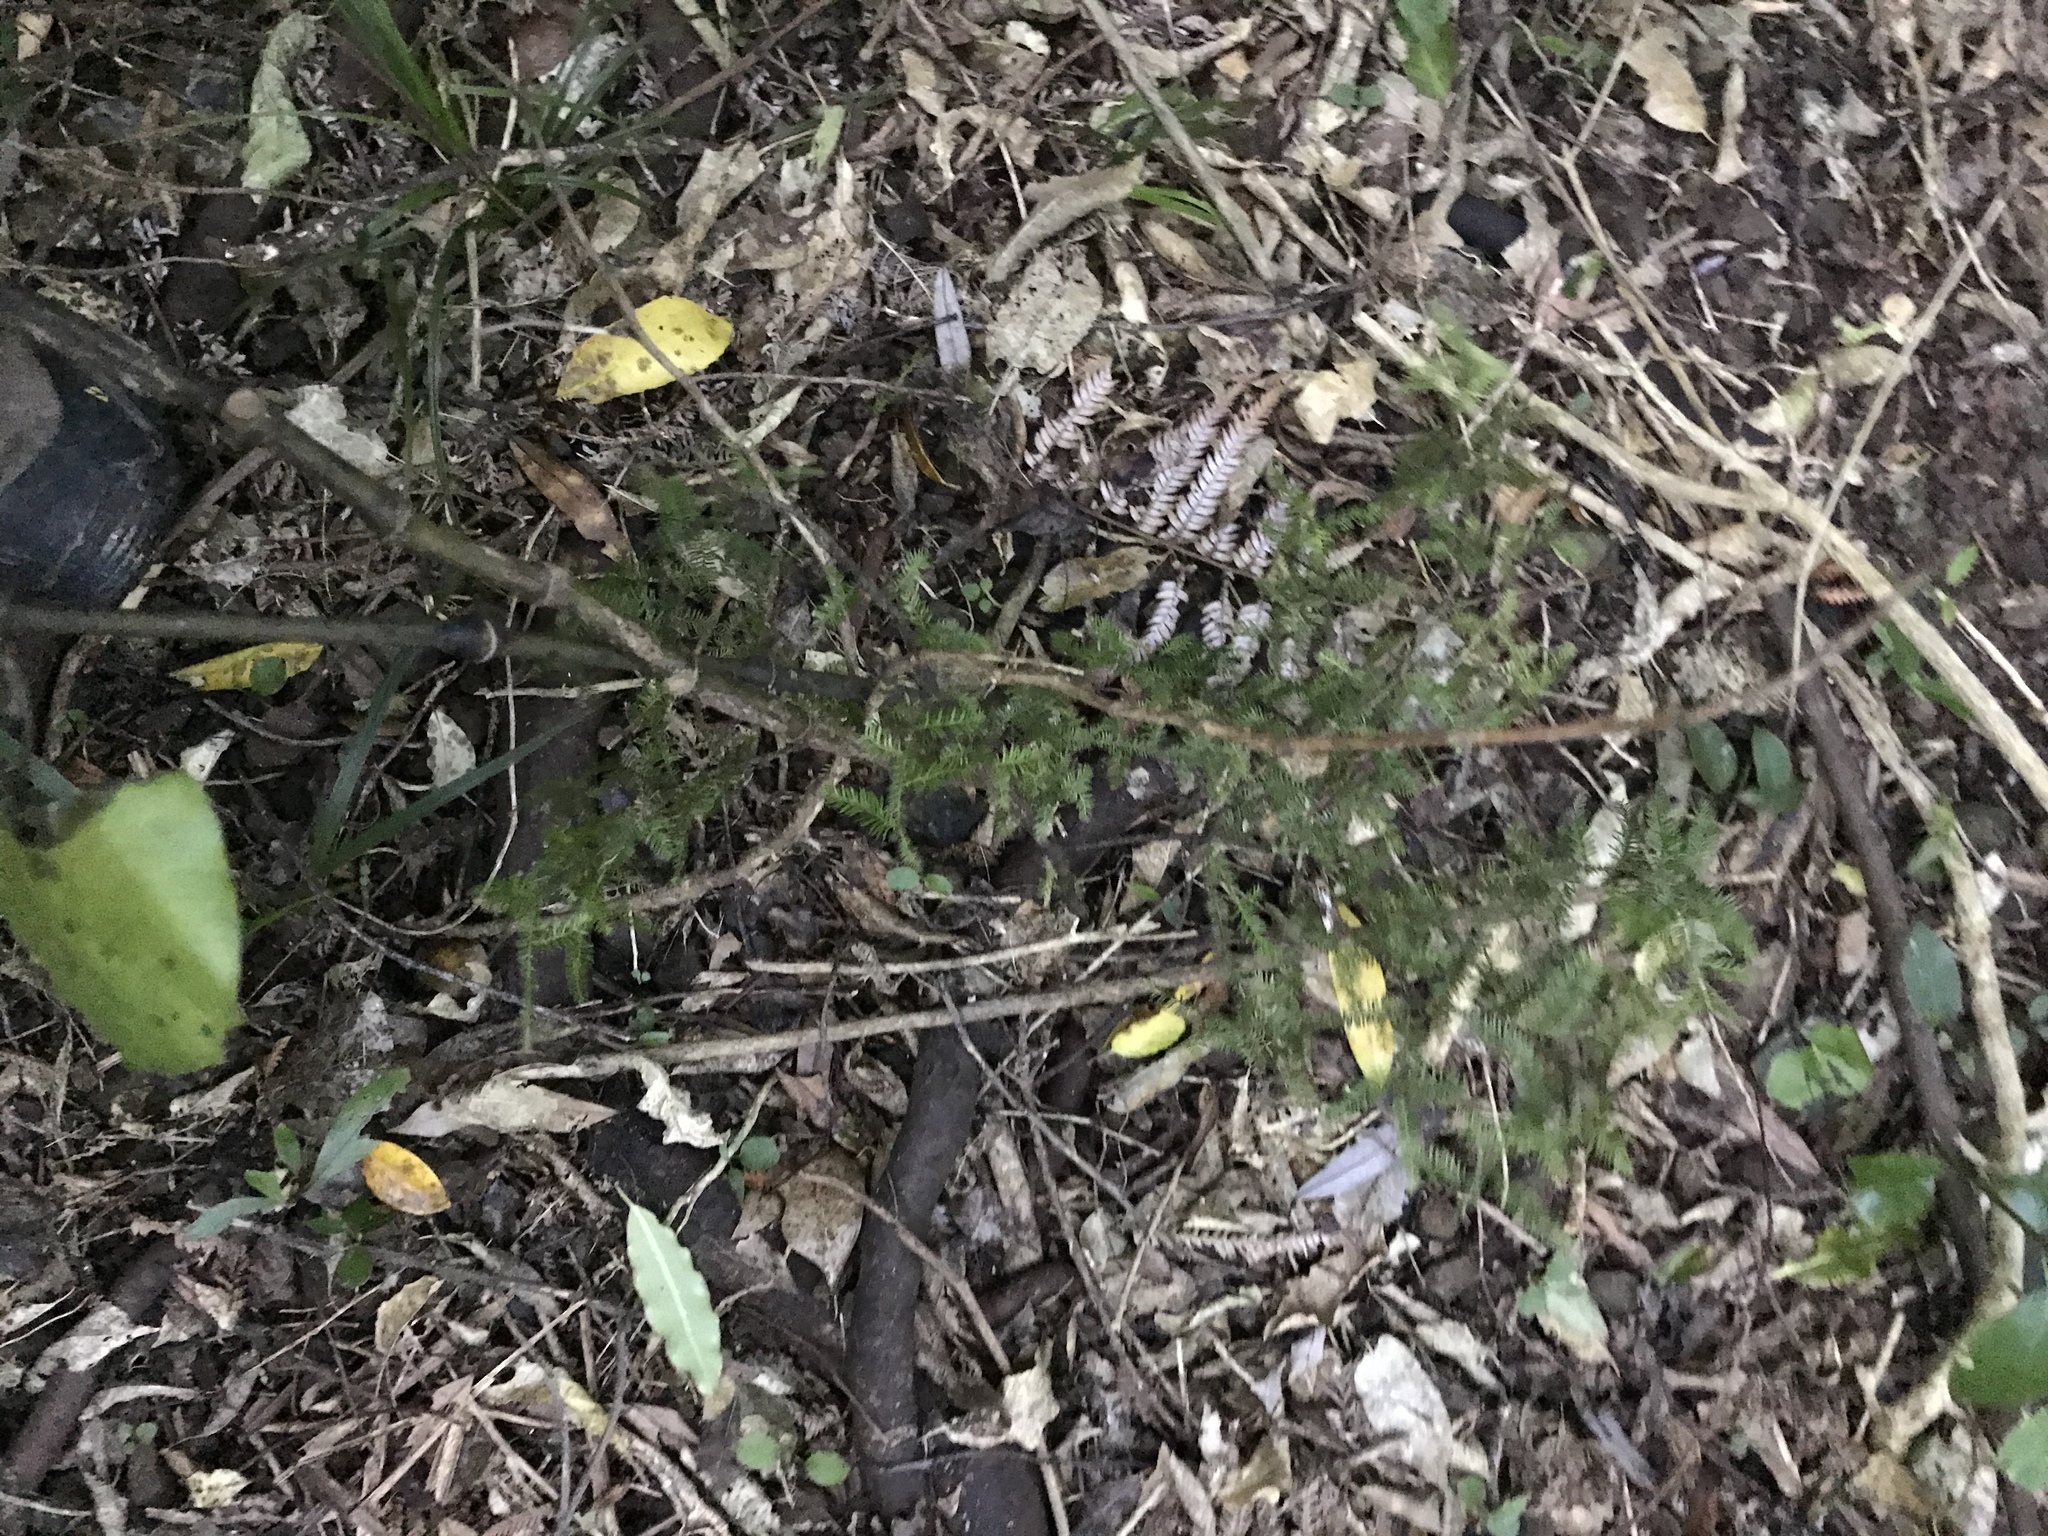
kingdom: Plantae
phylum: Tracheophyta
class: Pinopsida
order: Pinales
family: Podocarpaceae
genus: Dacrycarpus
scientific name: Dacrycarpus dacrydioides
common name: White pine
